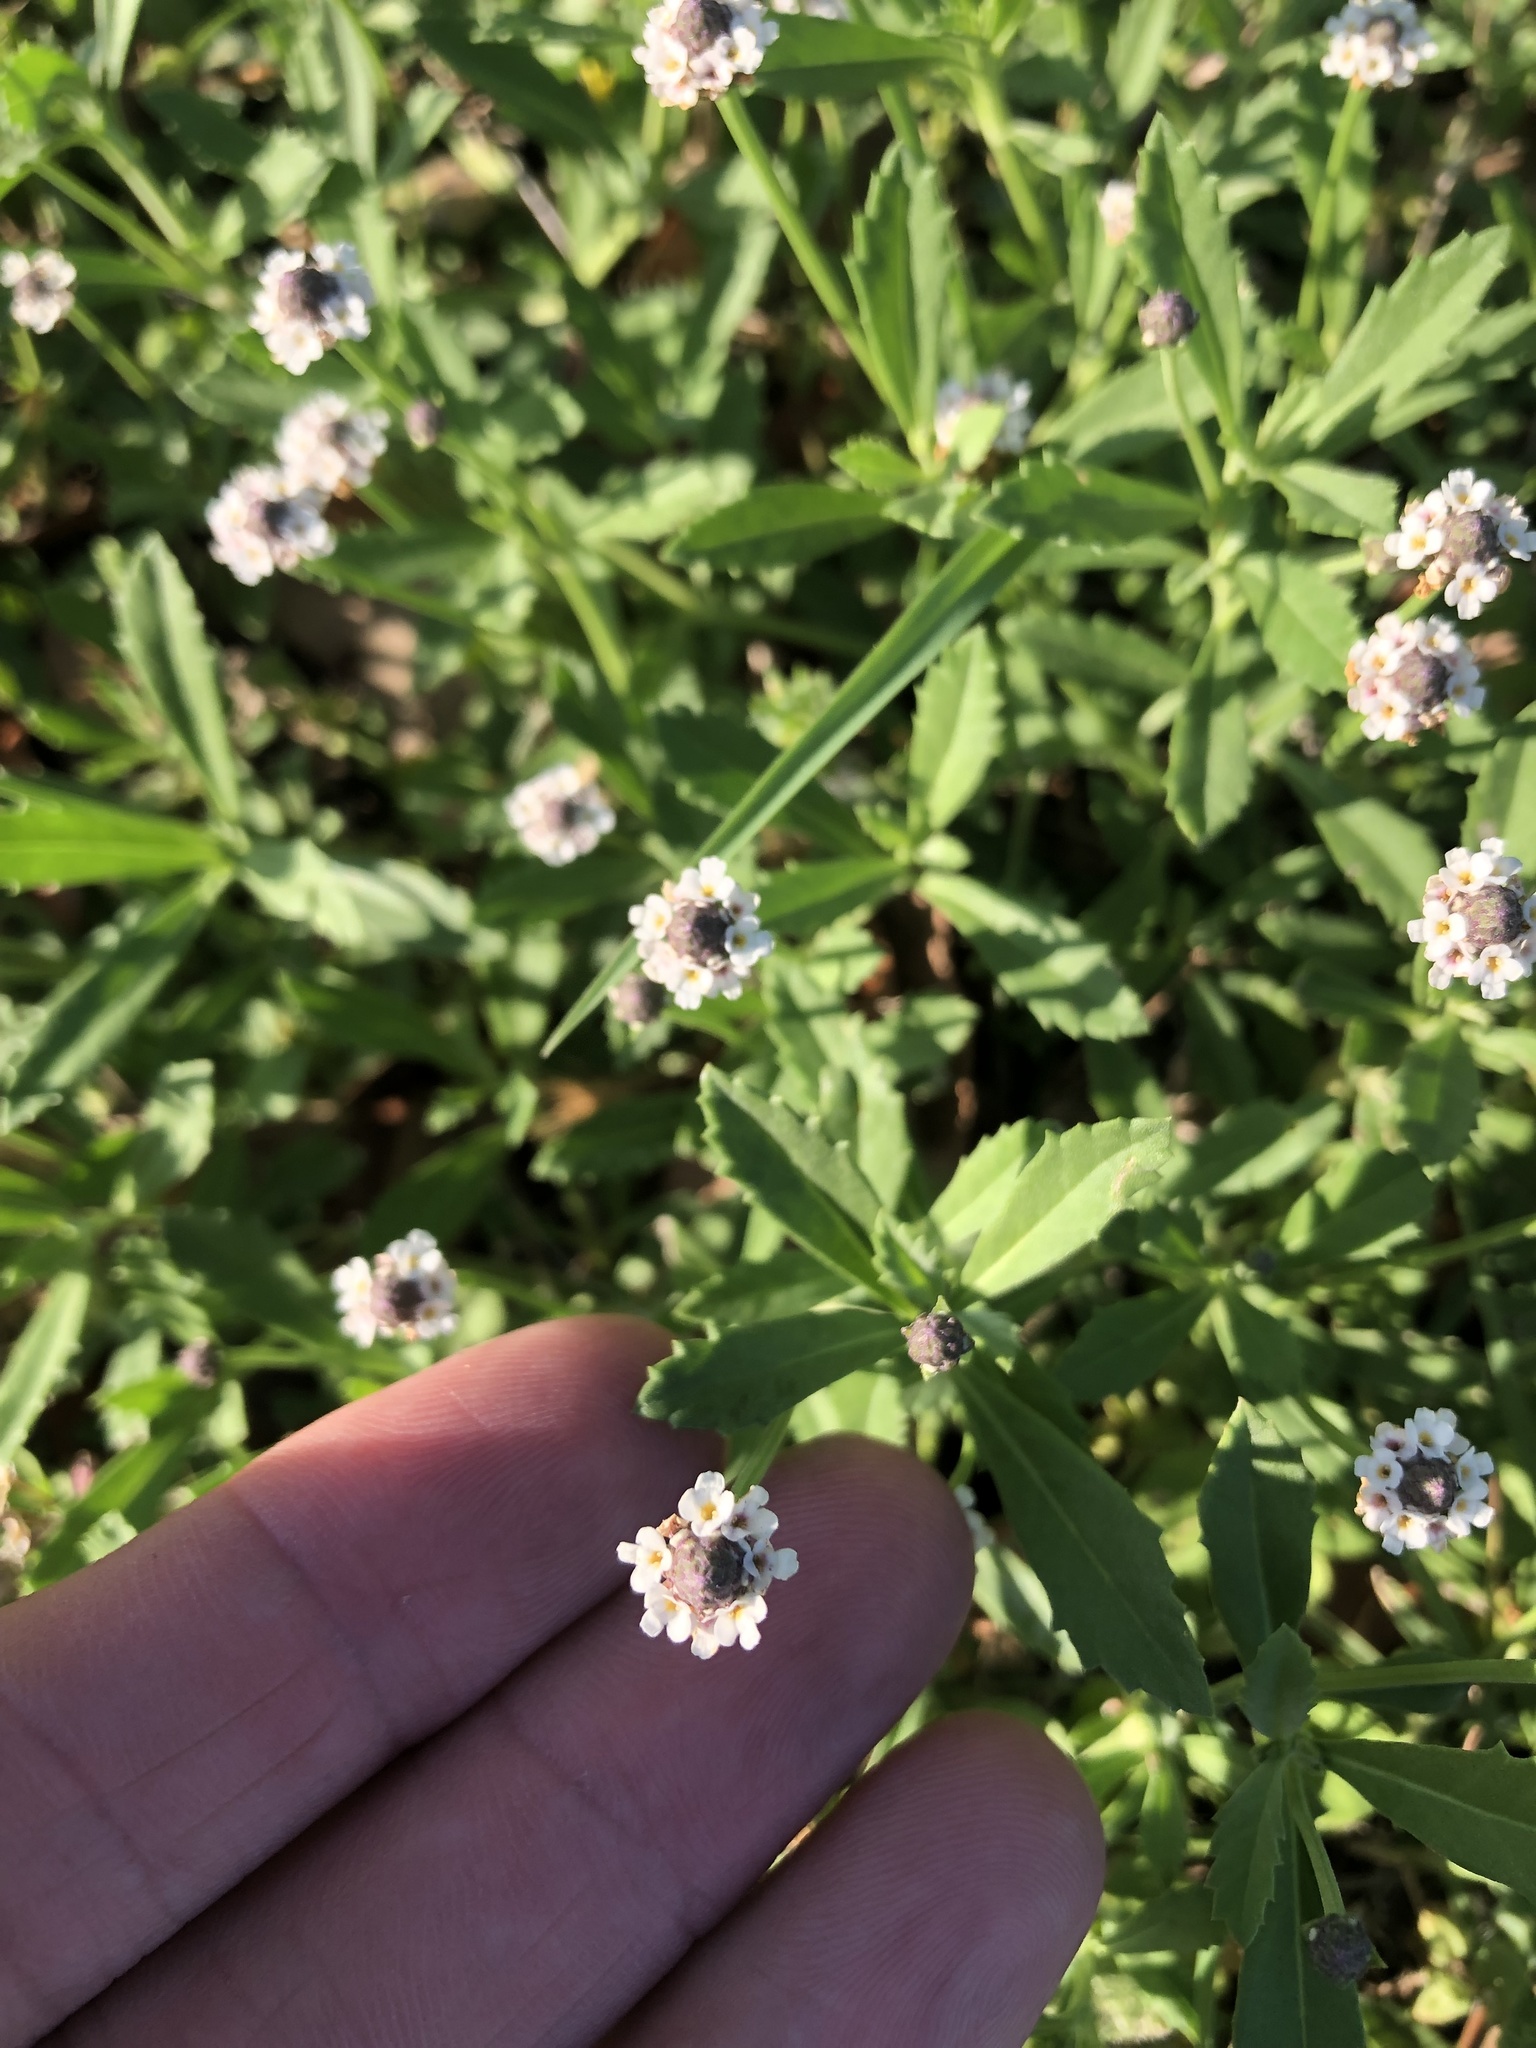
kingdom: Plantae
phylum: Tracheophyta
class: Magnoliopsida
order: Lamiales
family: Verbenaceae
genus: Phyla
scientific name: Phyla nodiflora
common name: Frogfruit
